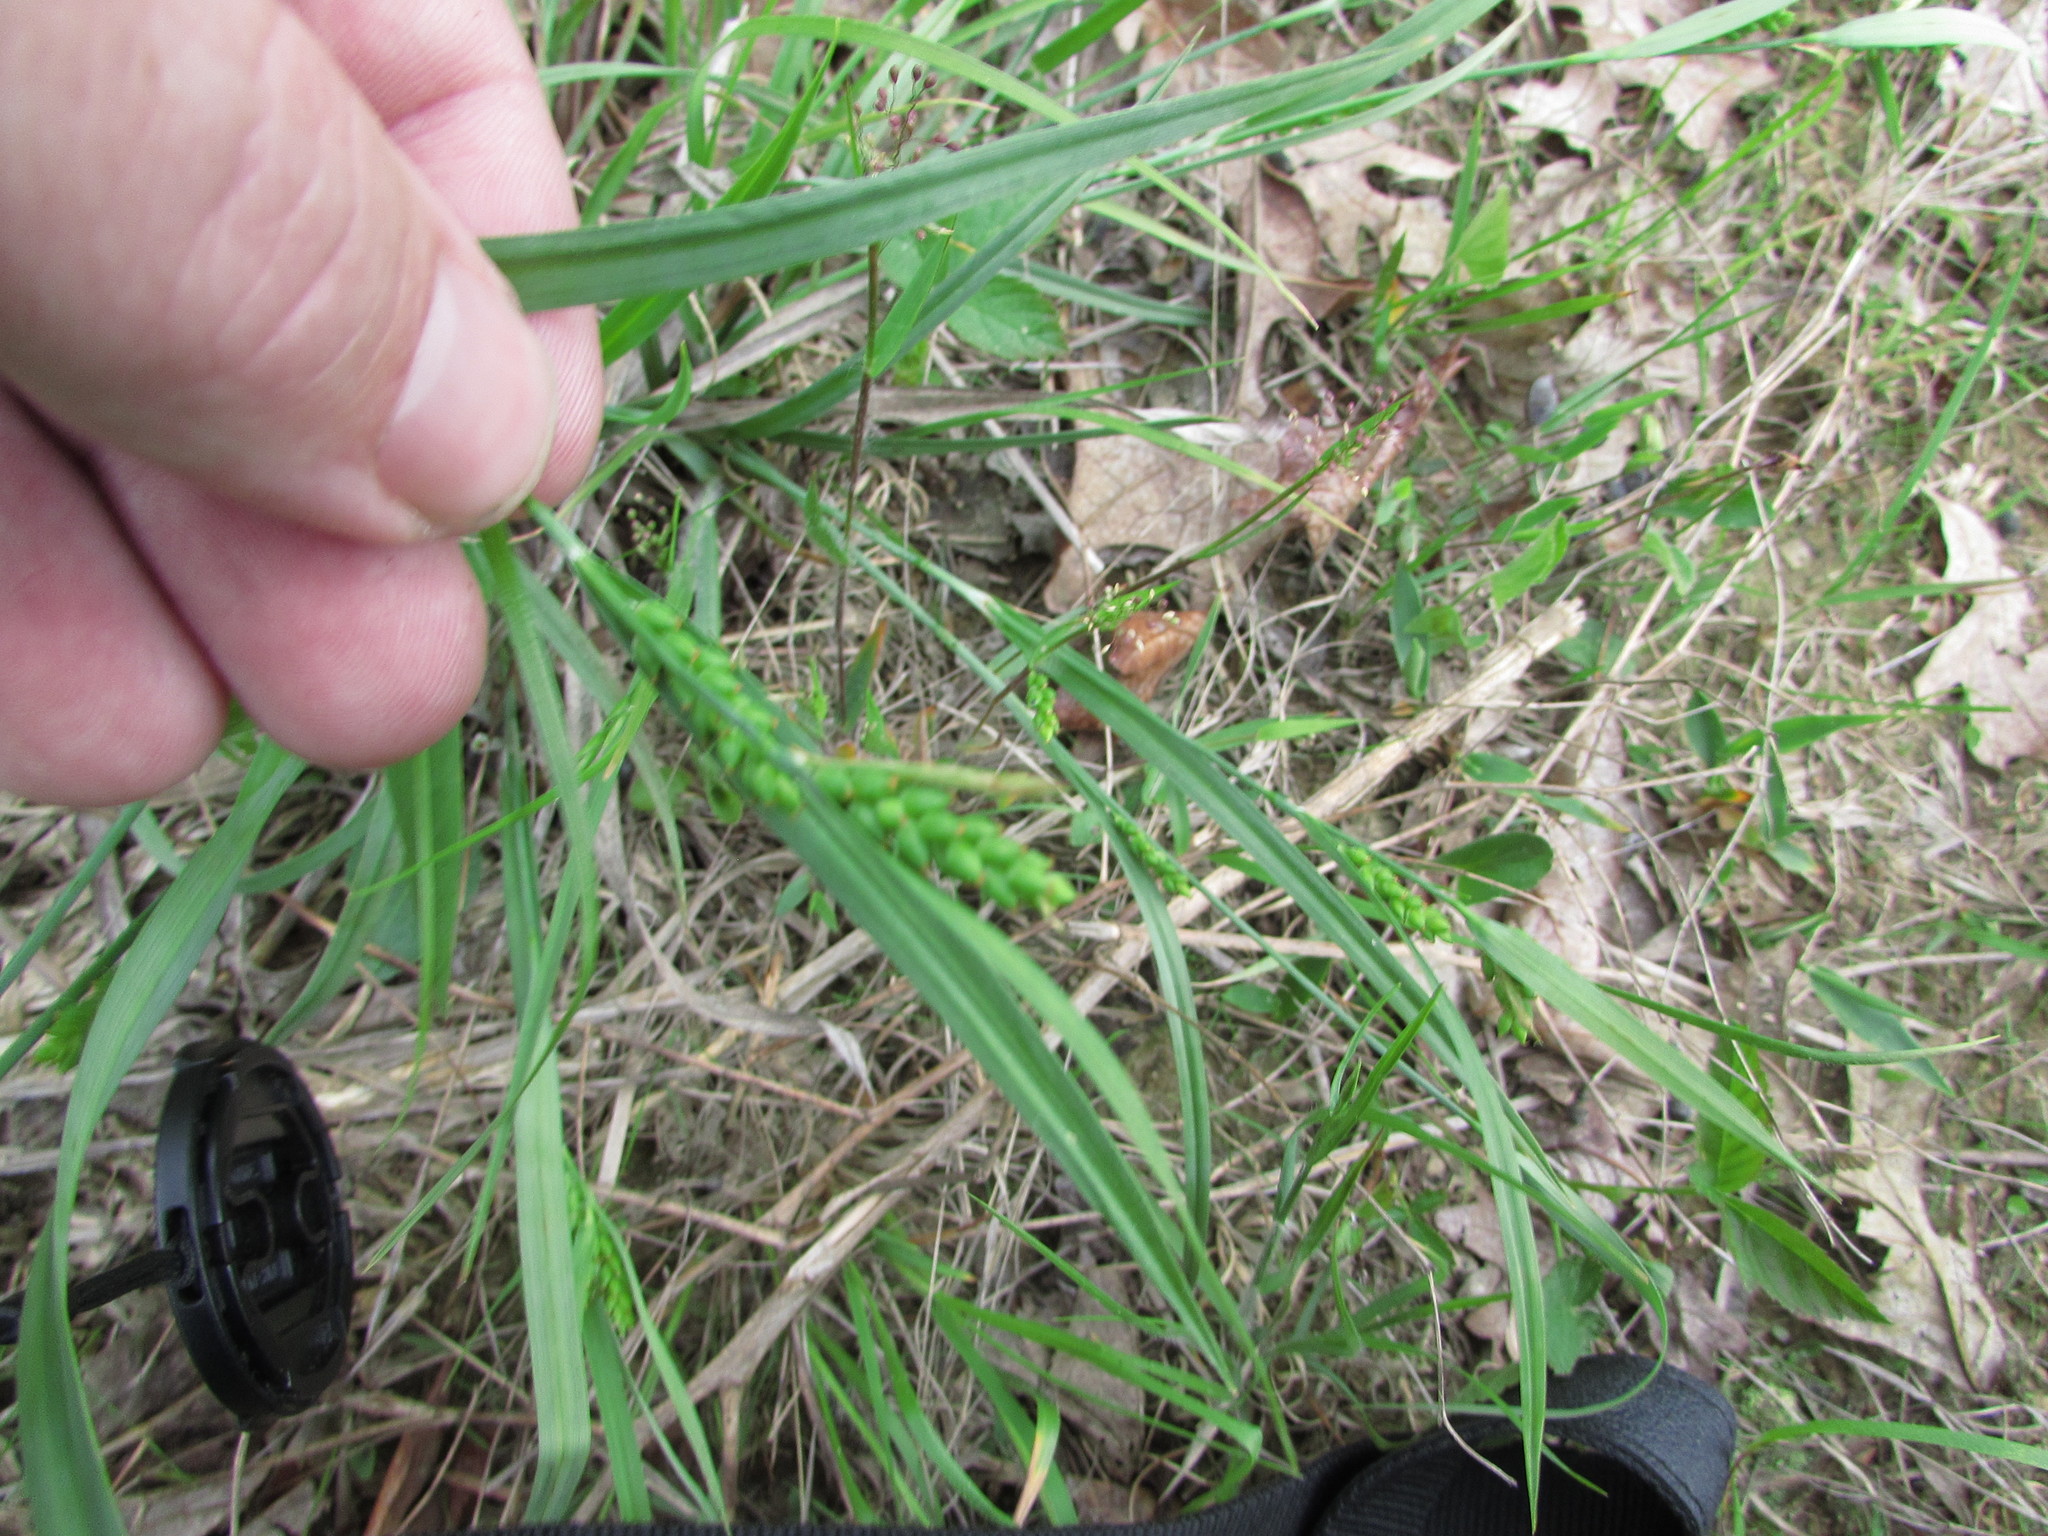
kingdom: Plantae
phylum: Tracheophyta
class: Liliopsida
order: Poales
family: Cyperaceae
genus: Carex
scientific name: Carex glaucodea
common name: Blue sedge
